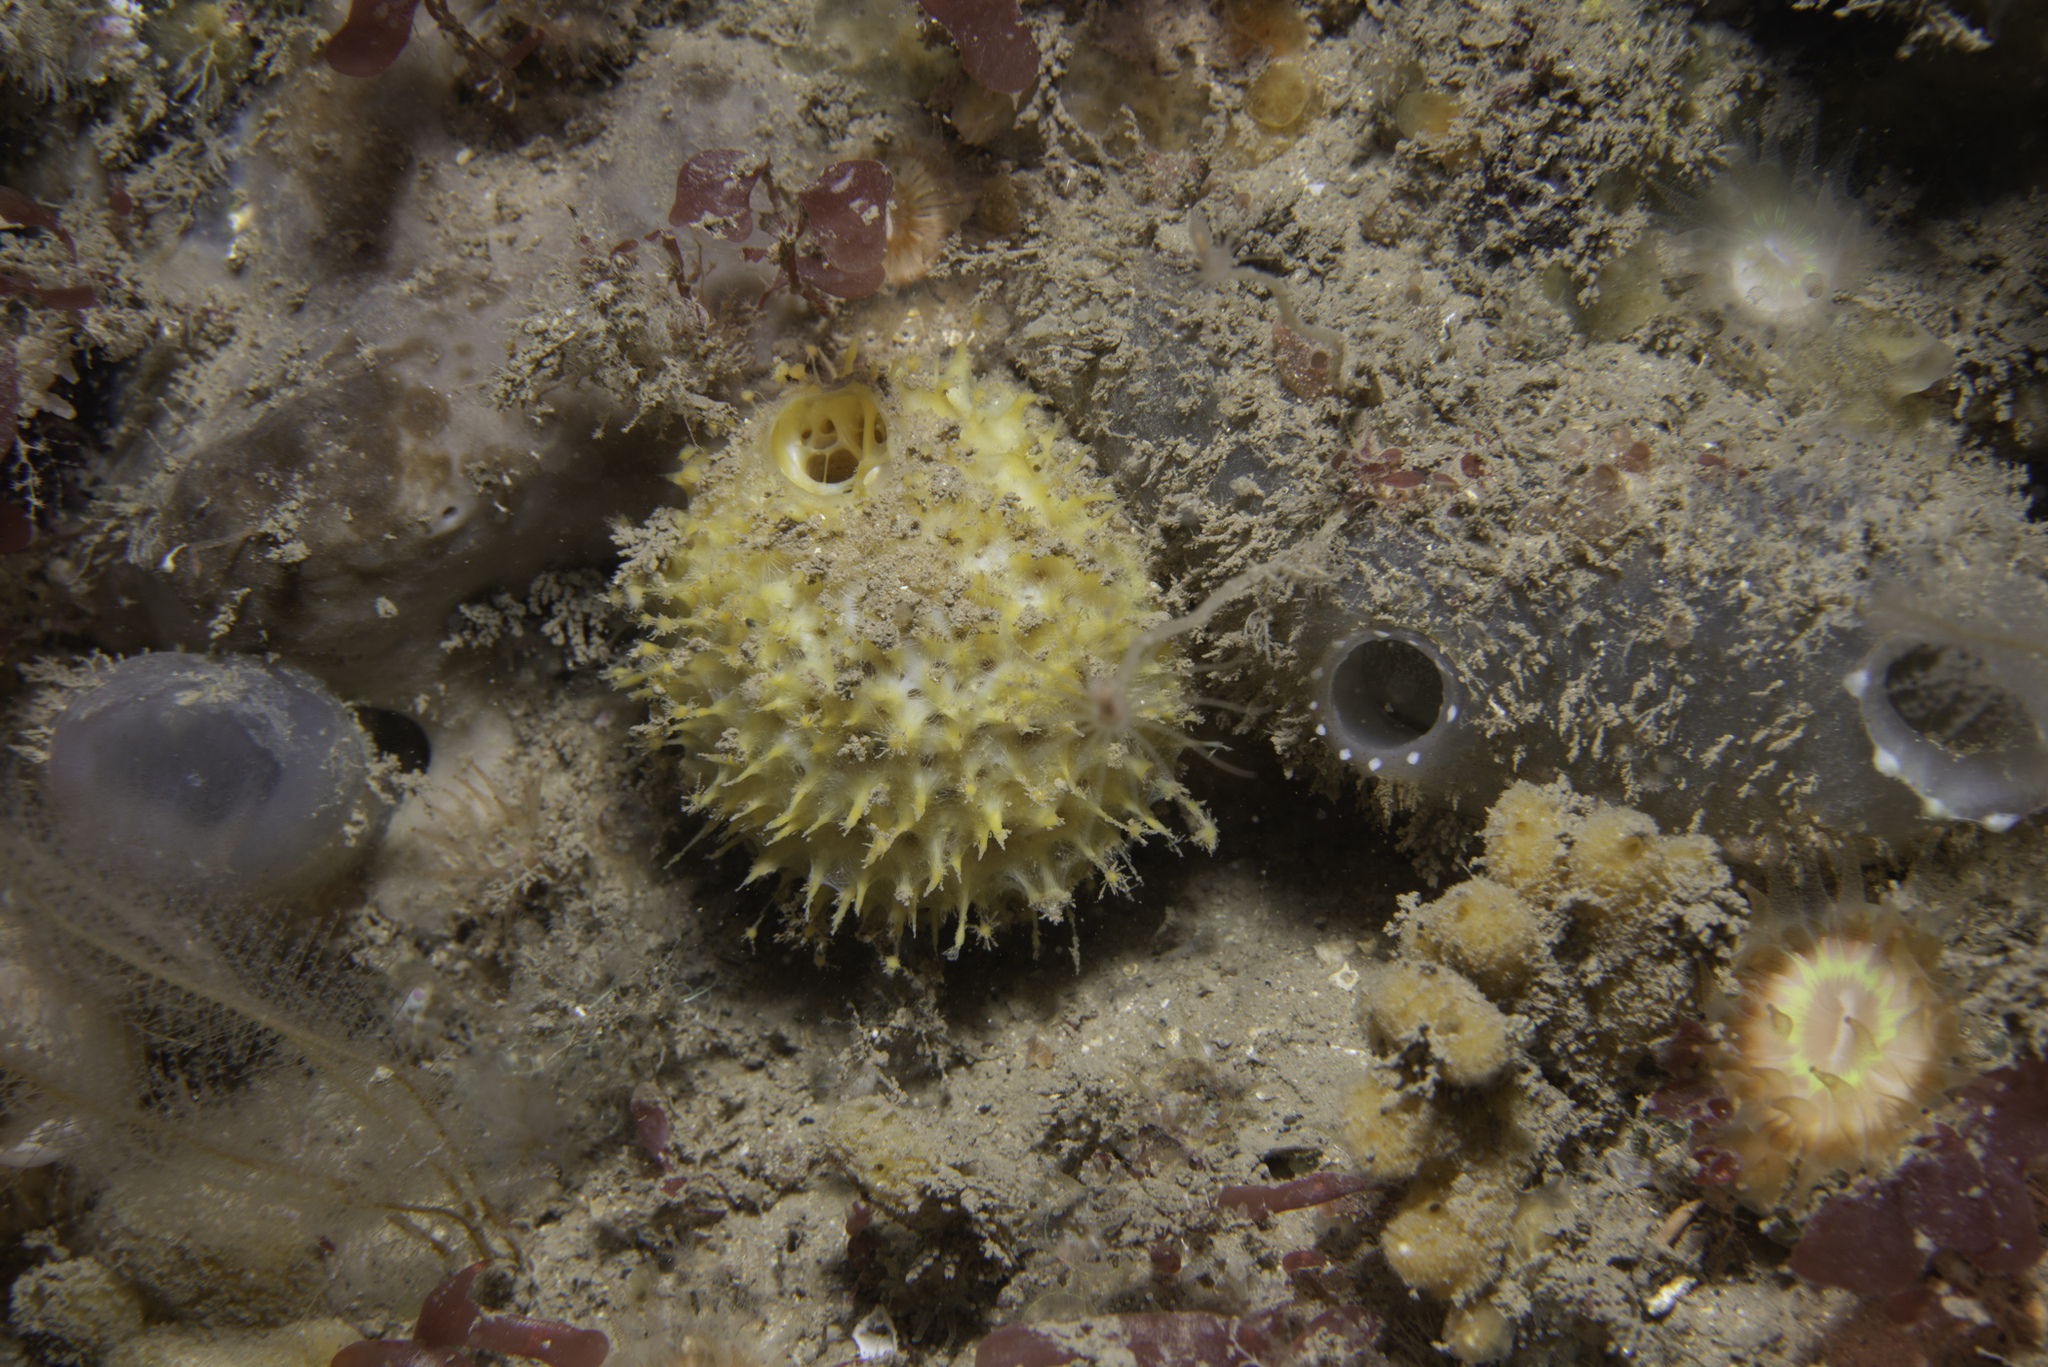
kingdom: Animalia
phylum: Porifera
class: Demospongiae
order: Tethyida
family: Tethyidae
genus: Tethya
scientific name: Tethya citrina
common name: Sea lemon
